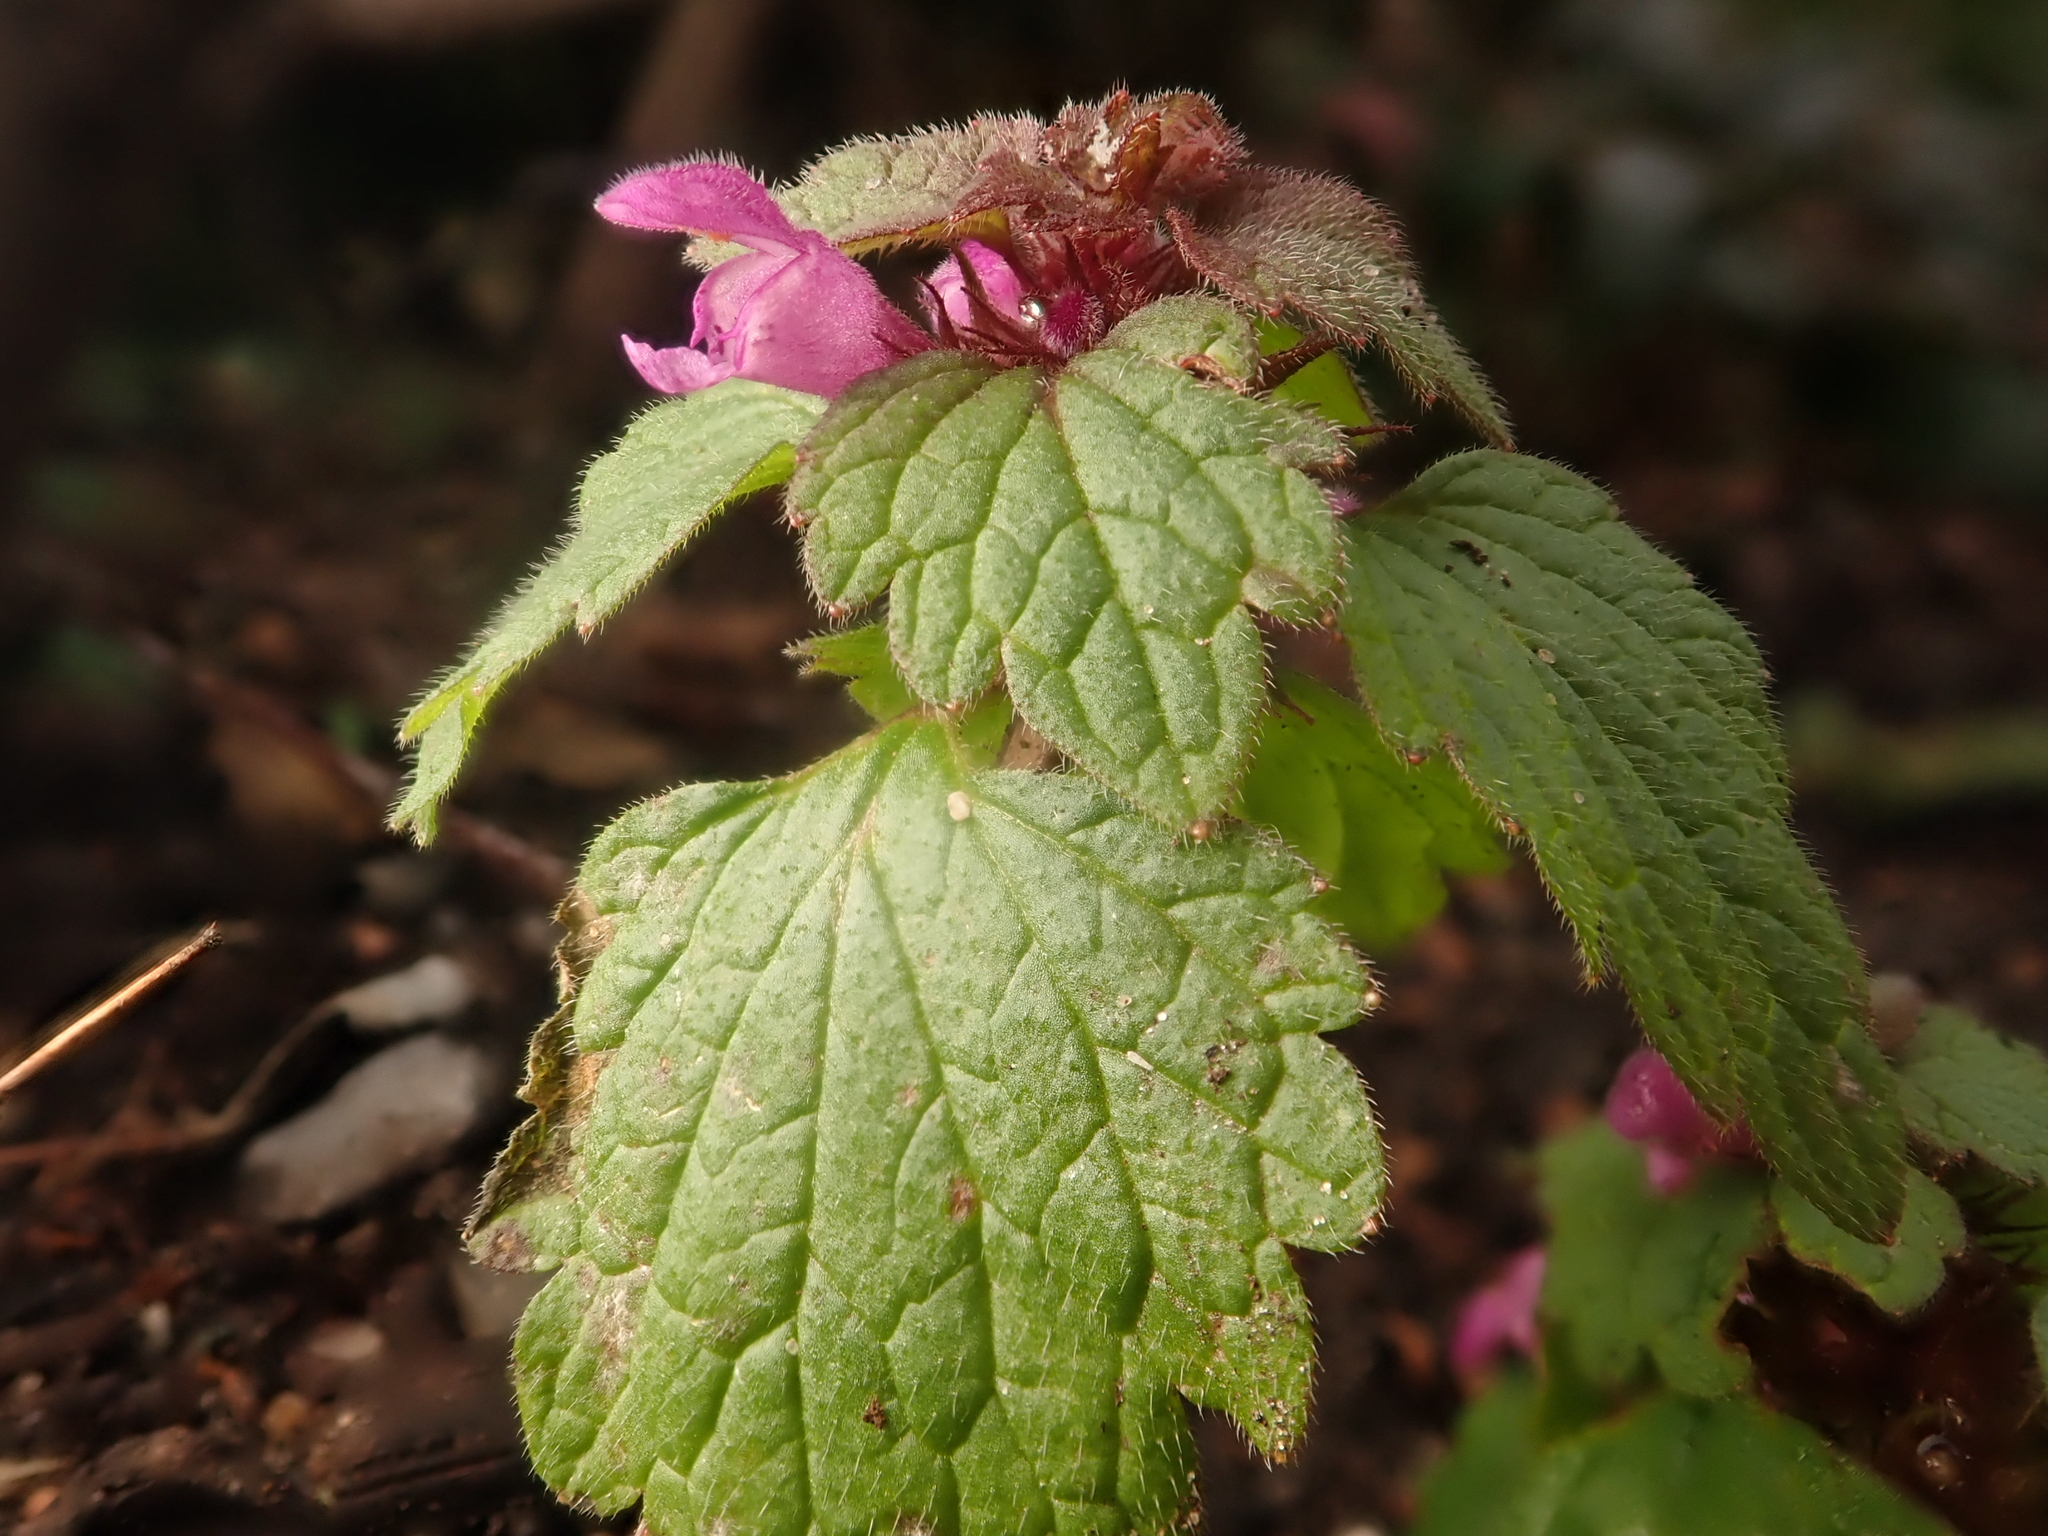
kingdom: Plantae
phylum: Tracheophyta
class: Magnoliopsida
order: Lamiales
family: Lamiaceae
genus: Lamium
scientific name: Lamium purpureum
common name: Red dead-nettle
